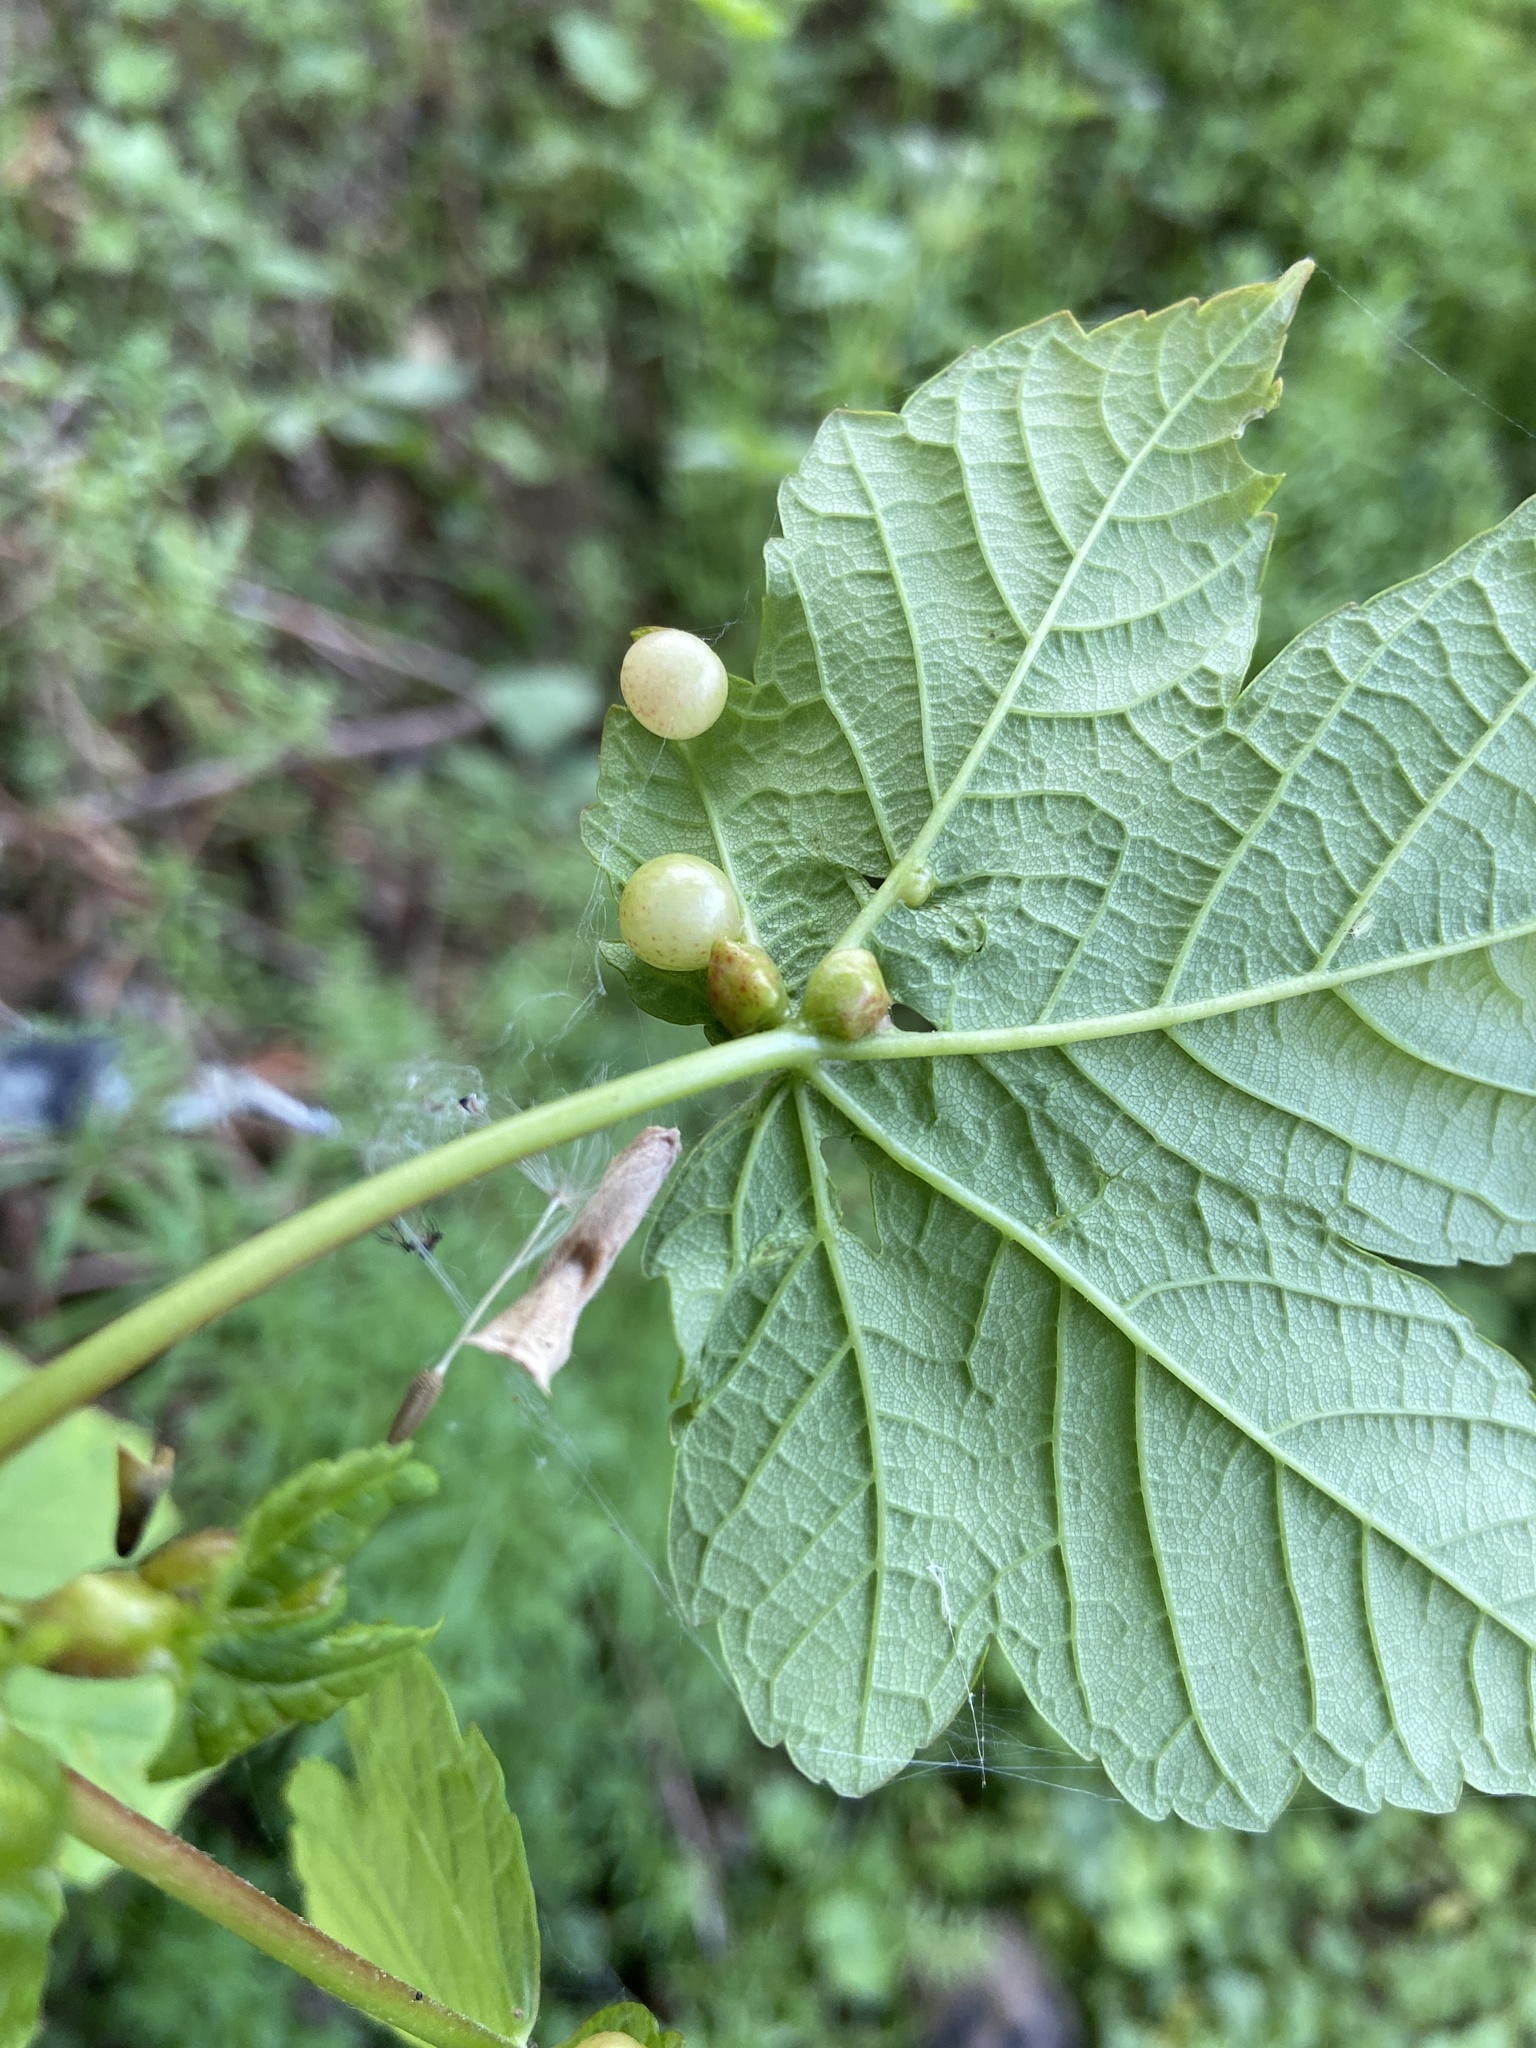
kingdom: Animalia
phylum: Arthropoda
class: Insecta
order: Hymenoptera
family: Eulophidae
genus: Dichatomus
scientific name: Dichatomus acerinus
